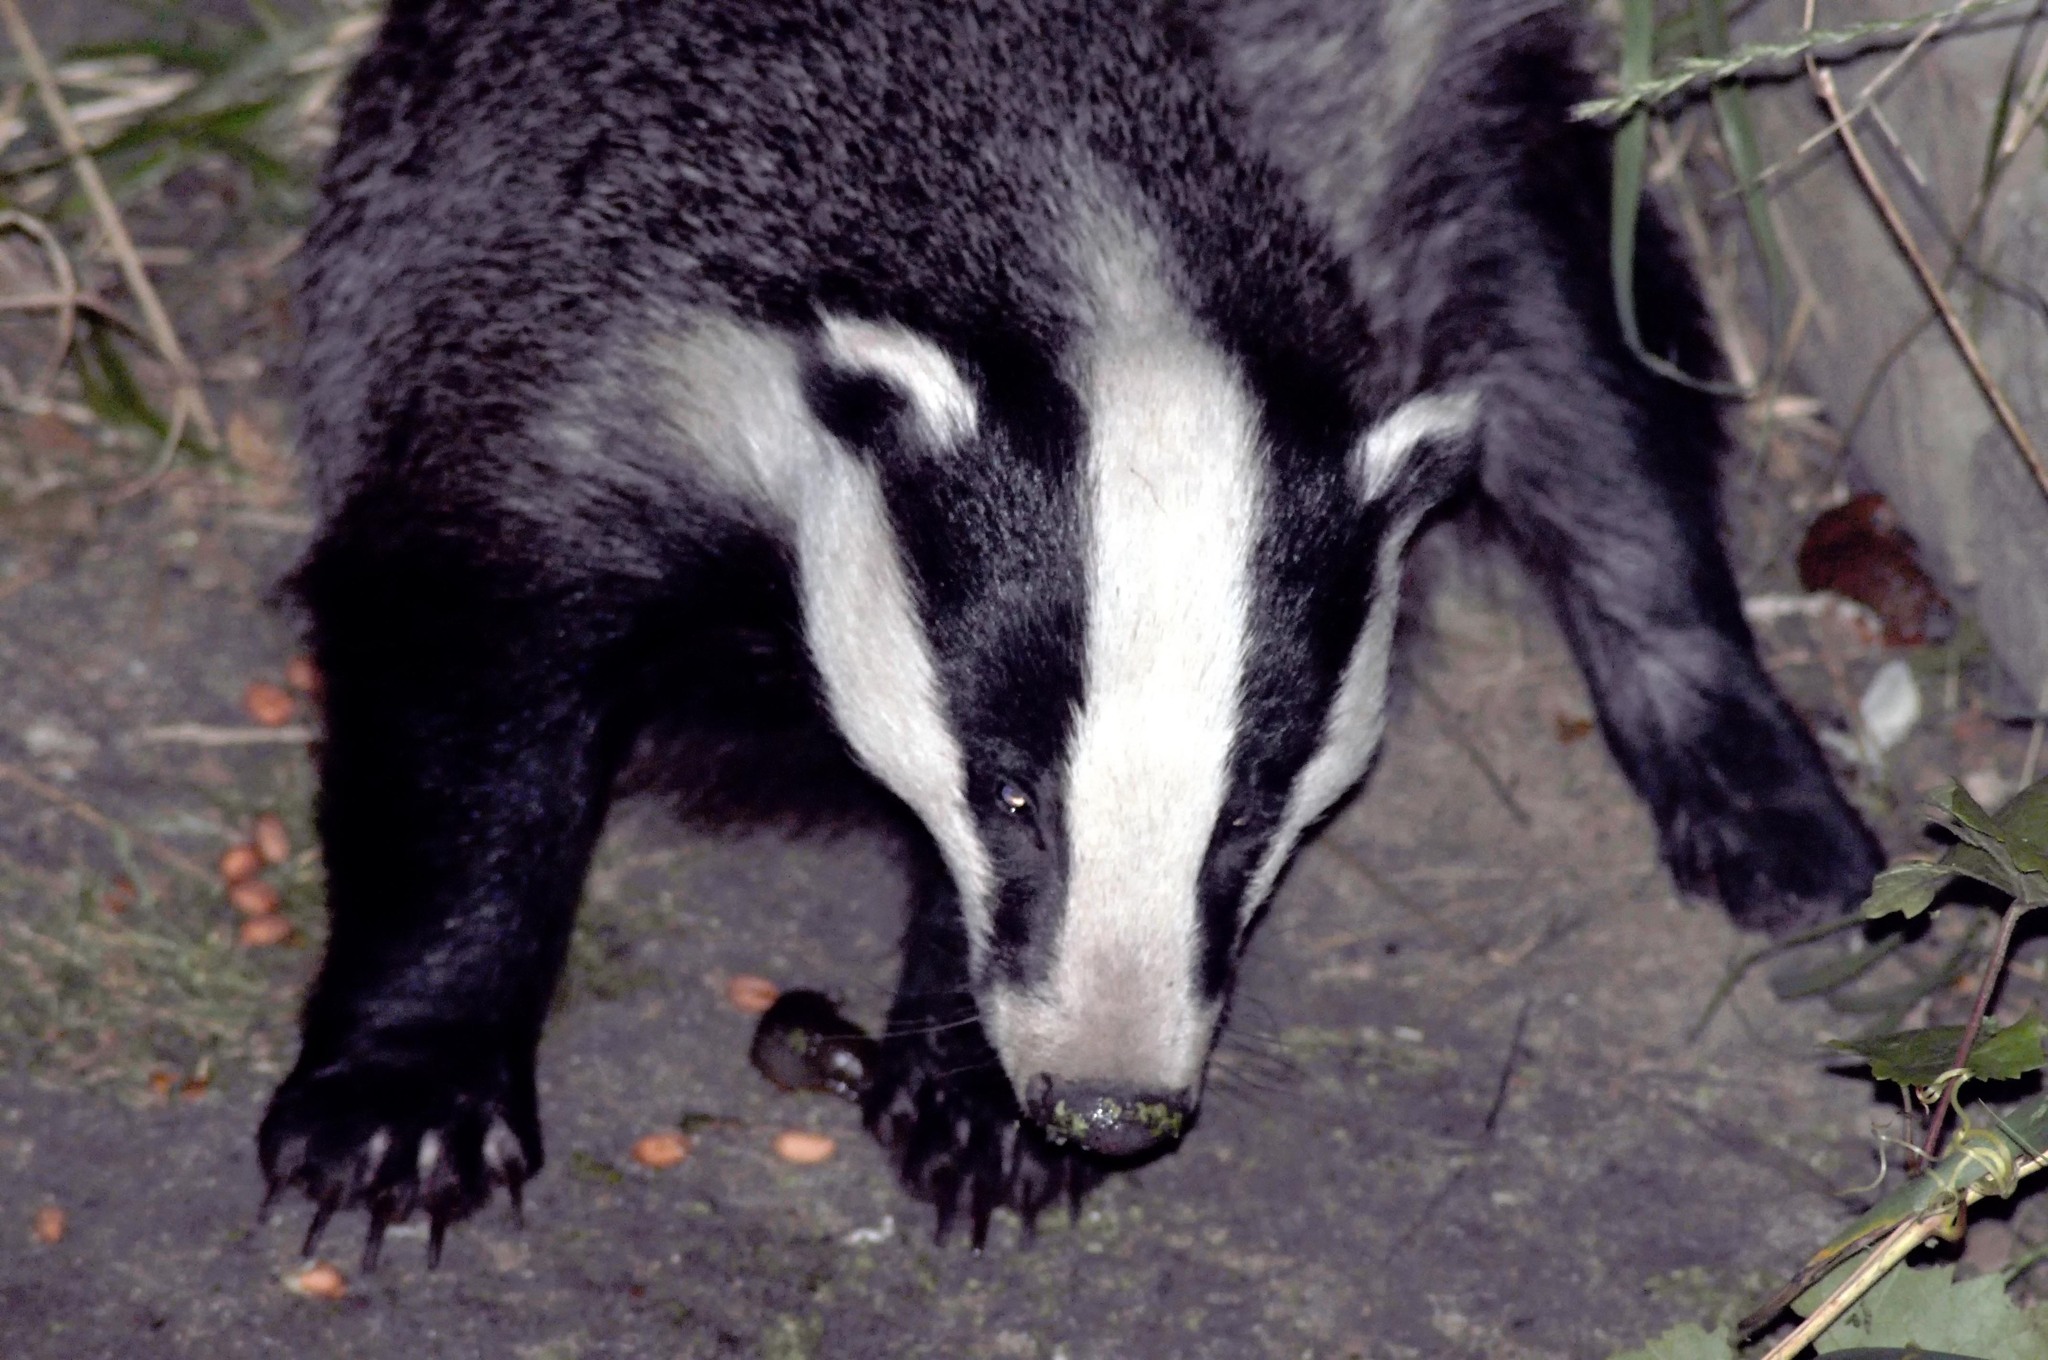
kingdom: Animalia
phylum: Chordata
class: Mammalia
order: Carnivora
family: Mustelidae
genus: Meles
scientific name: Meles meles
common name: Eurasian badger
